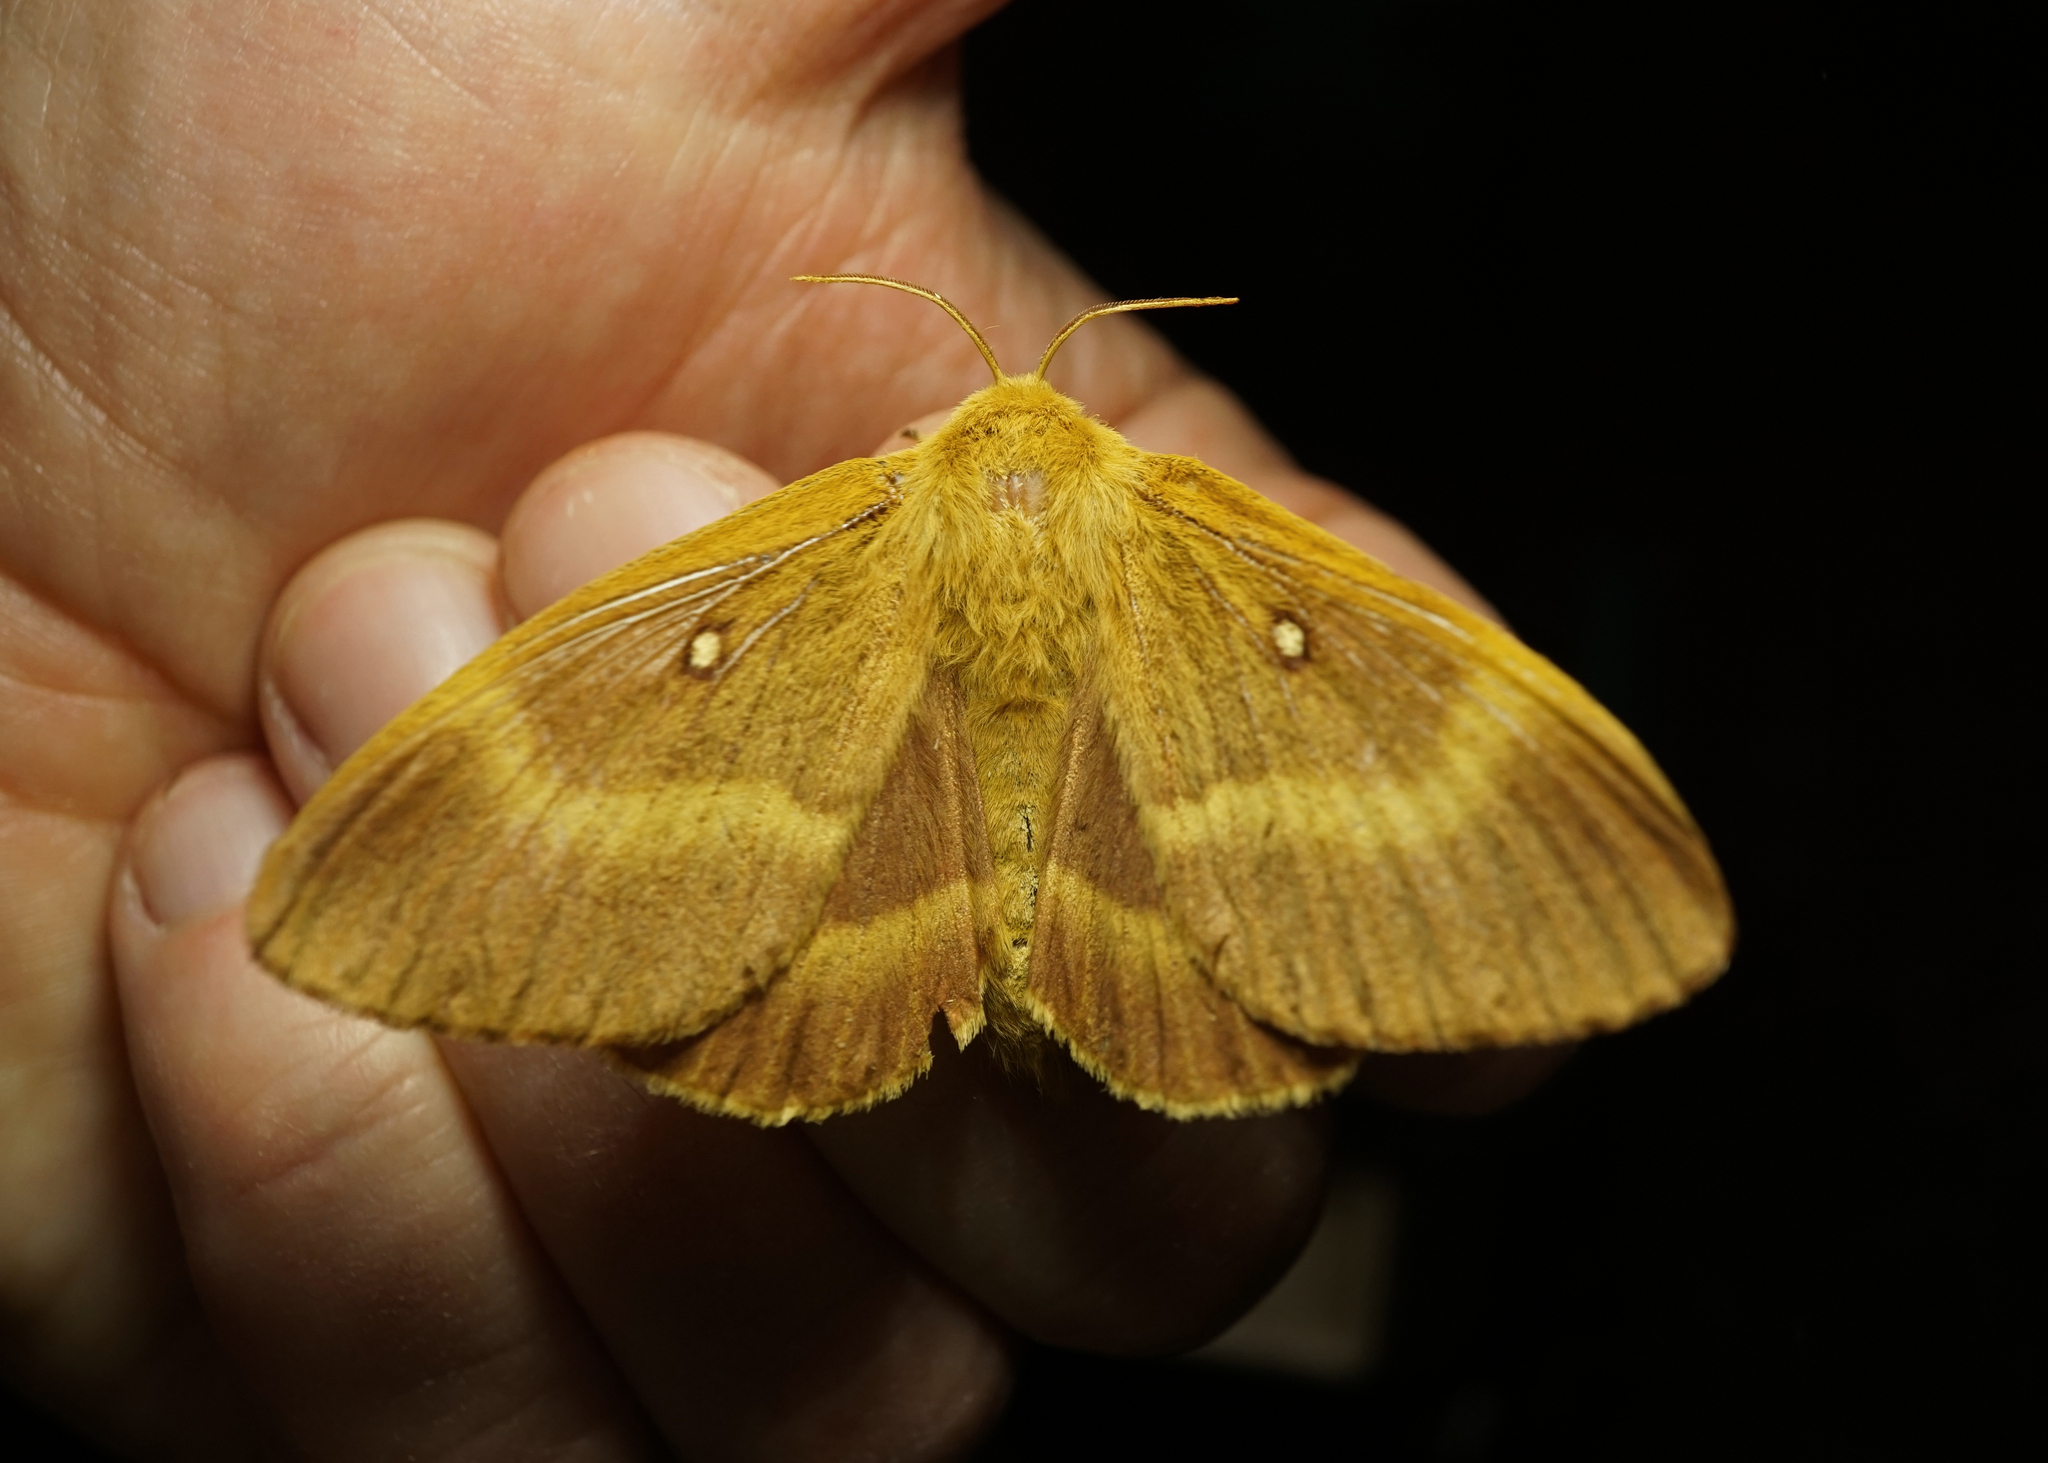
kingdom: Animalia
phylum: Arthropoda
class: Insecta
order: Lepidoptera
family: Lasiocampidae
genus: Lasiocampa
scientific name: Lasiocampa quercus
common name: Oak eggar
